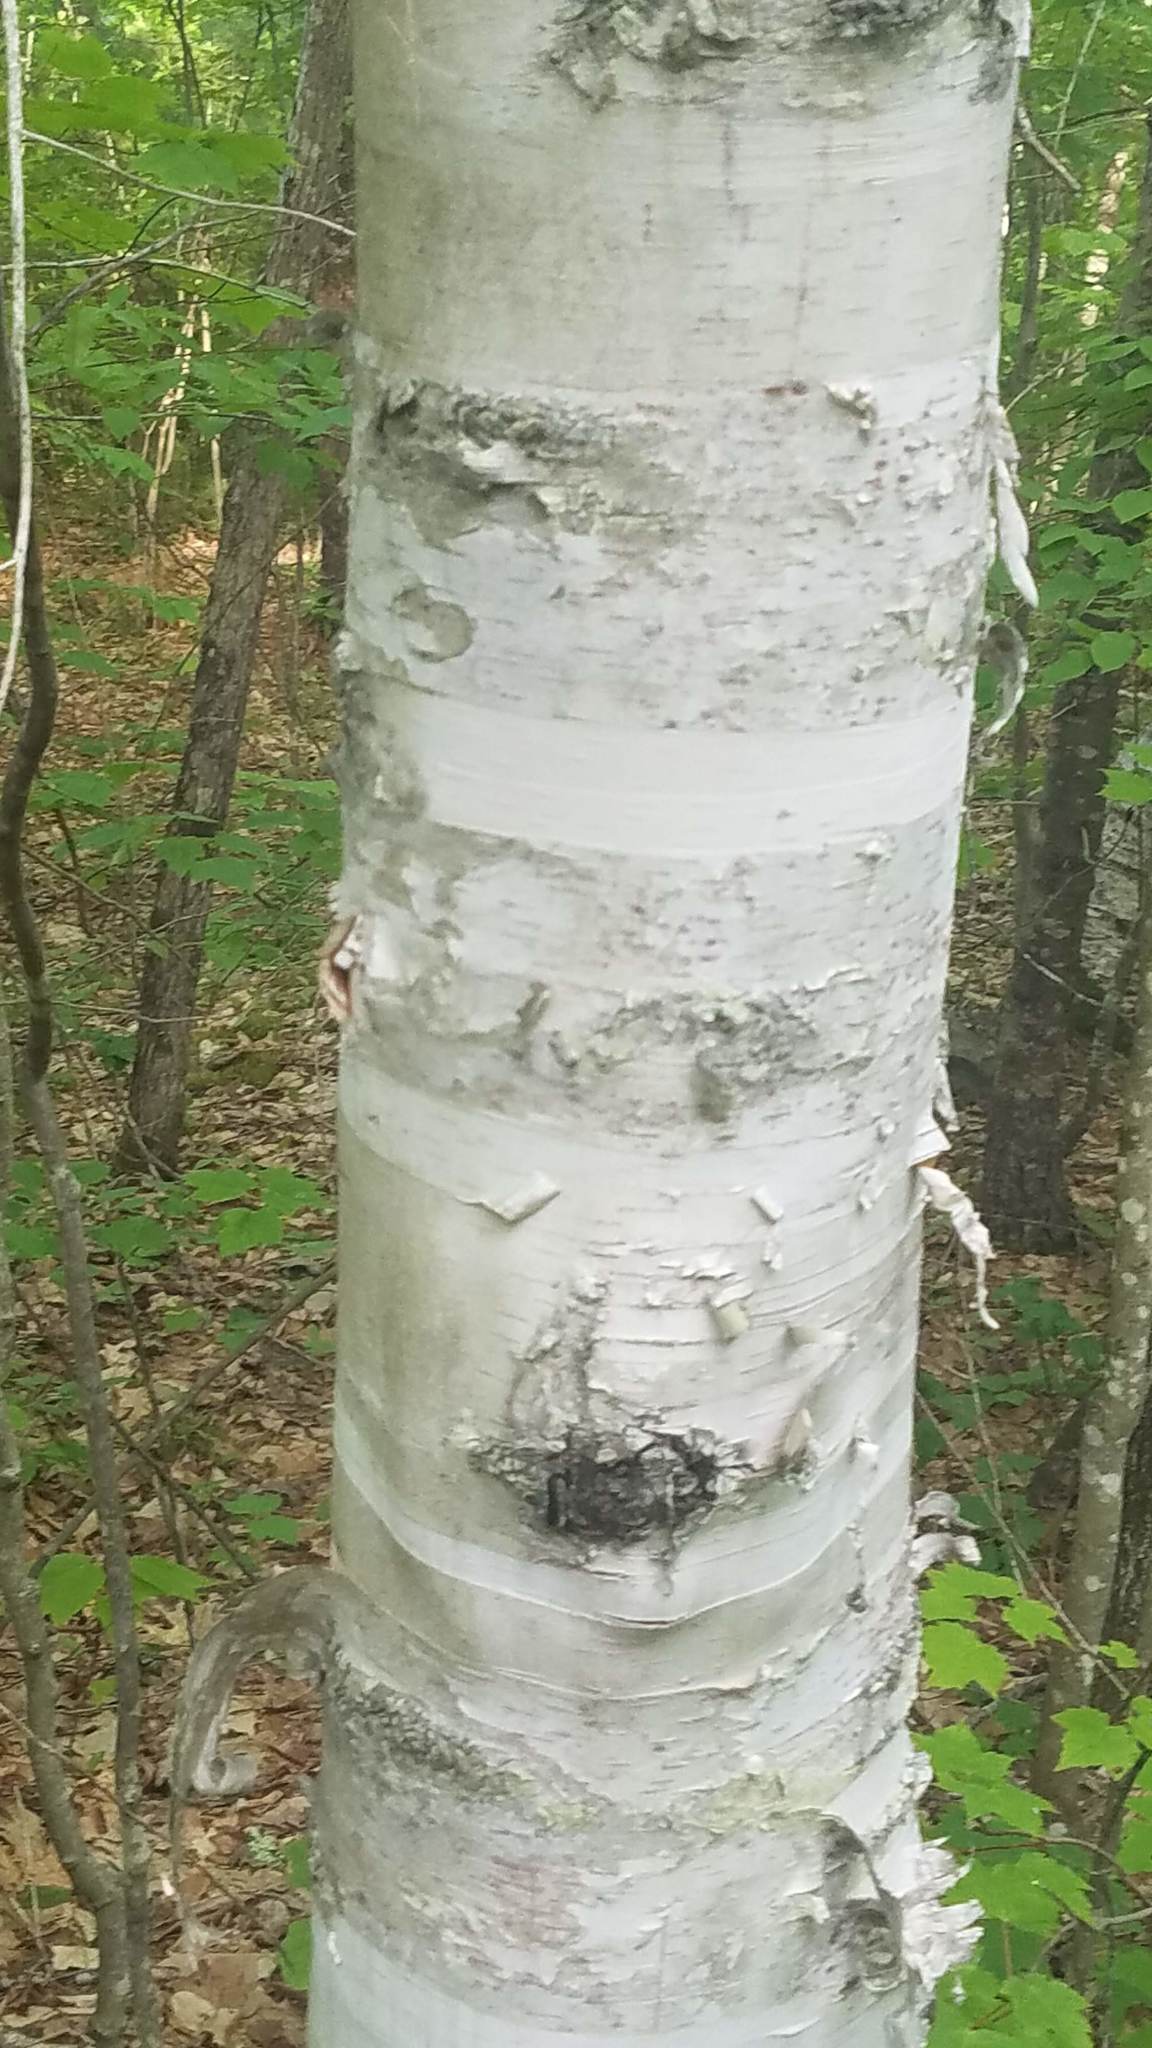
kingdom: Plantae
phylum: Tracheophyta
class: Magnoliopsida
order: Fagales
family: Betulaceae
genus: Betula
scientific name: Betula papyrifera
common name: Paper birch
